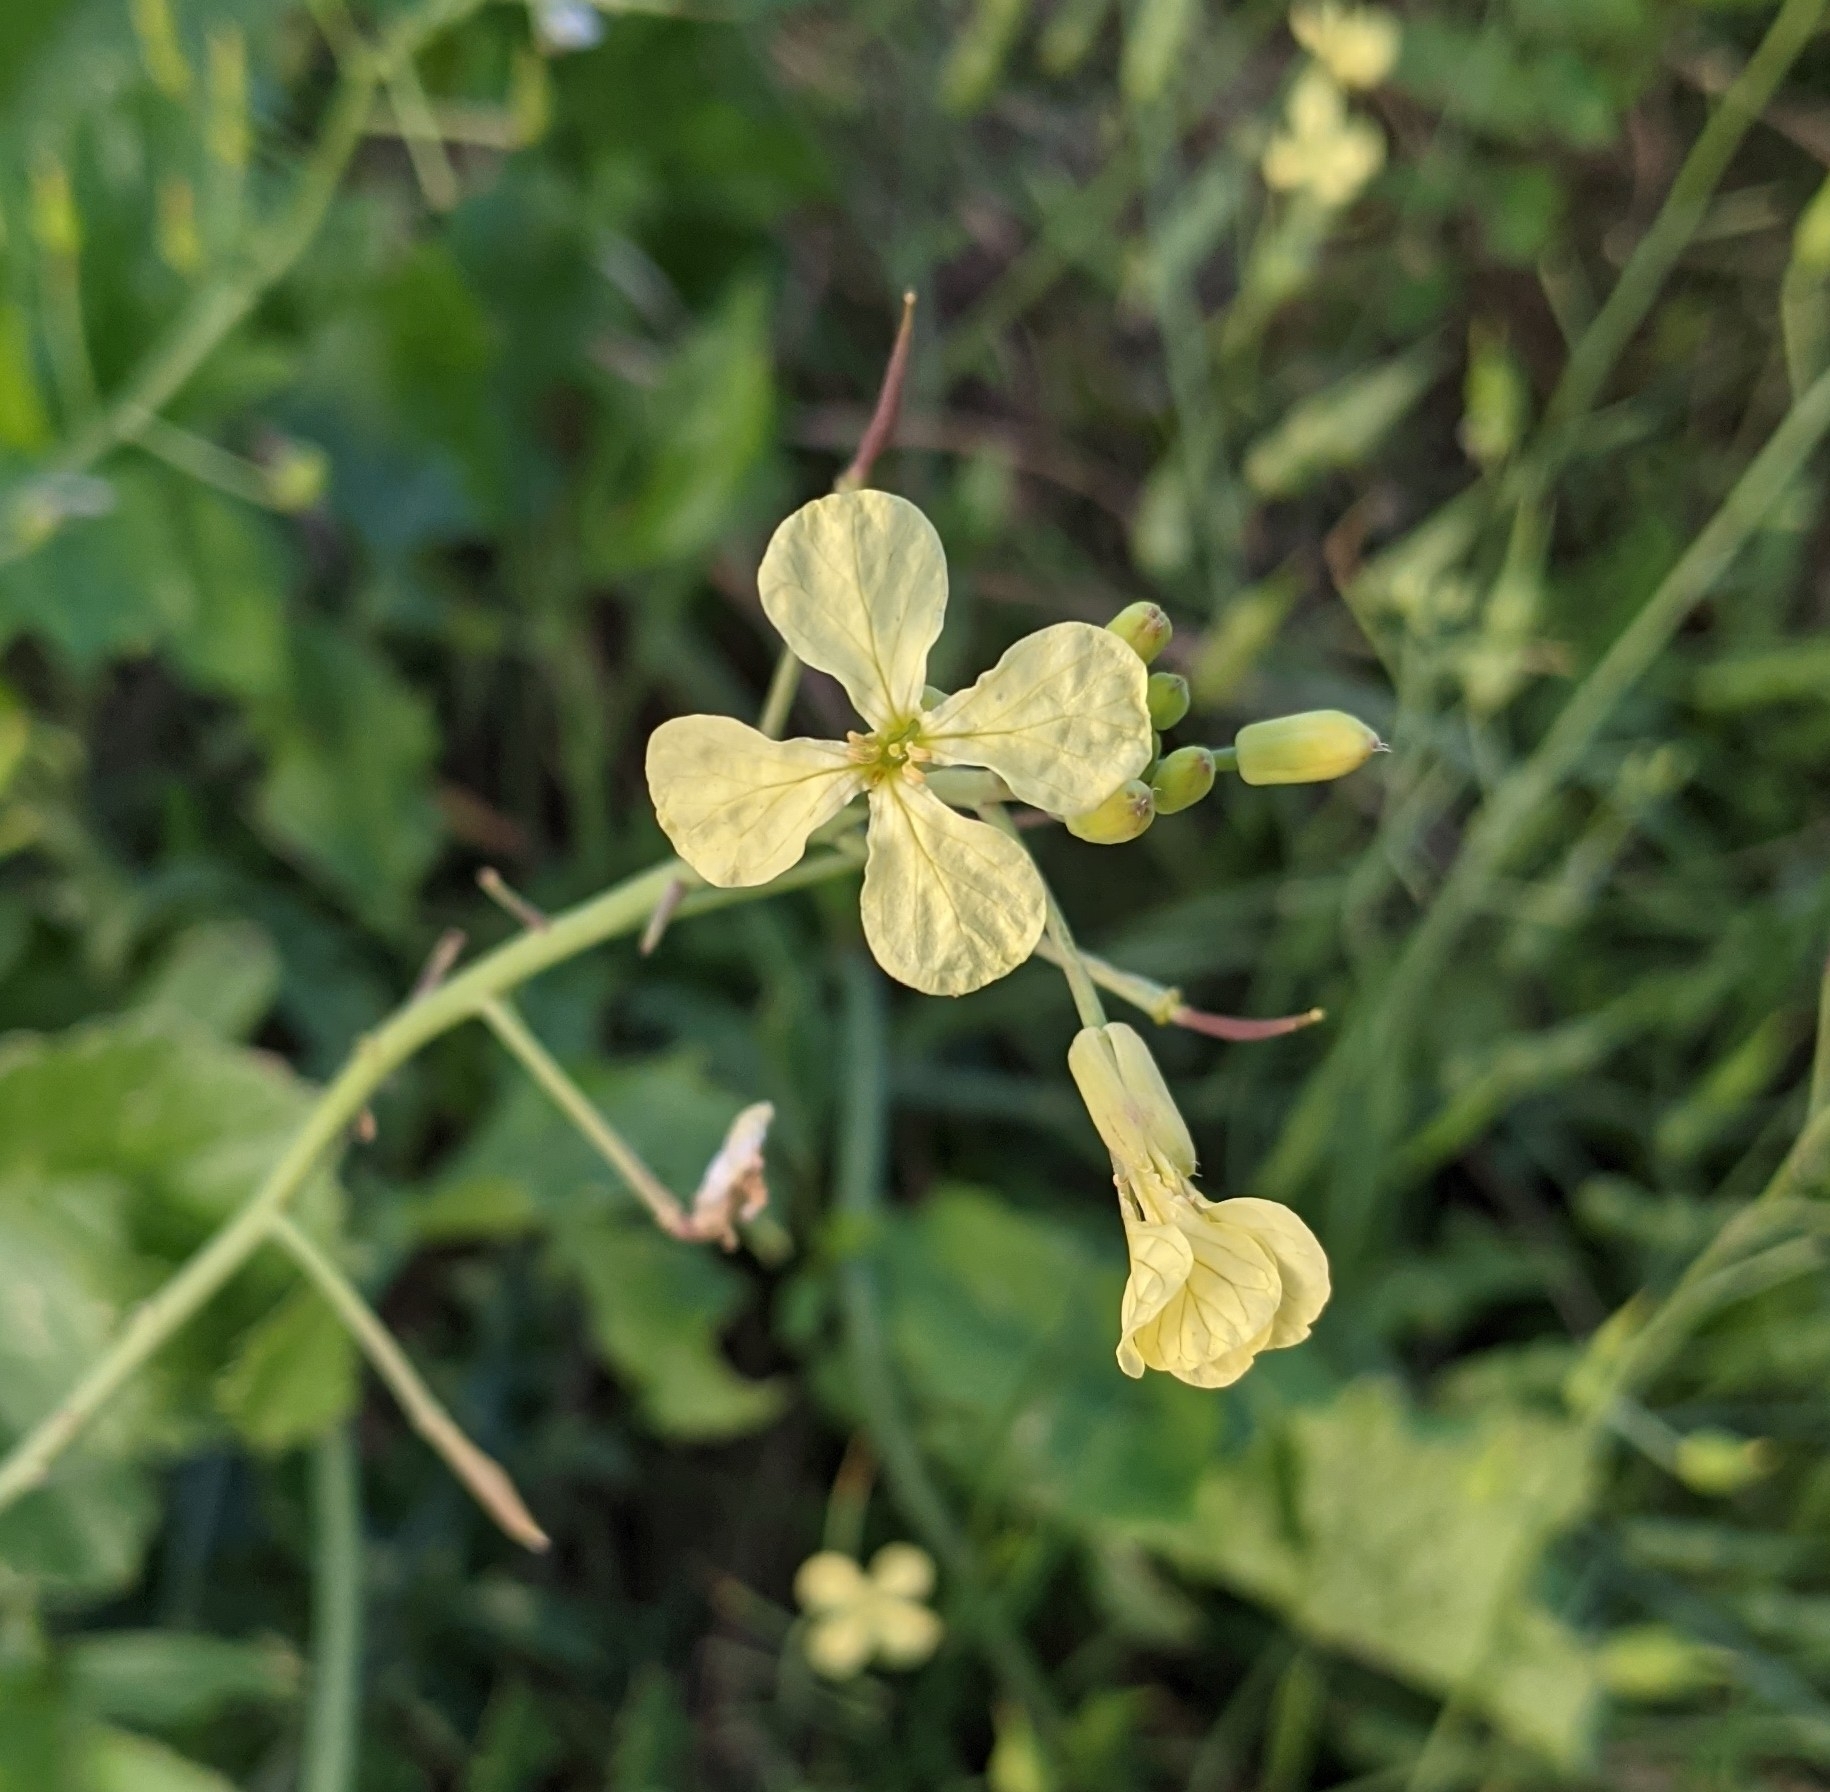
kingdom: Plantae
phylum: Tracheophyta
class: Magnoliopsida
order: Brassicales
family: Brassicaceae
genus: Raphanus
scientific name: Raphanus raphanistrum
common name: Wild radish
